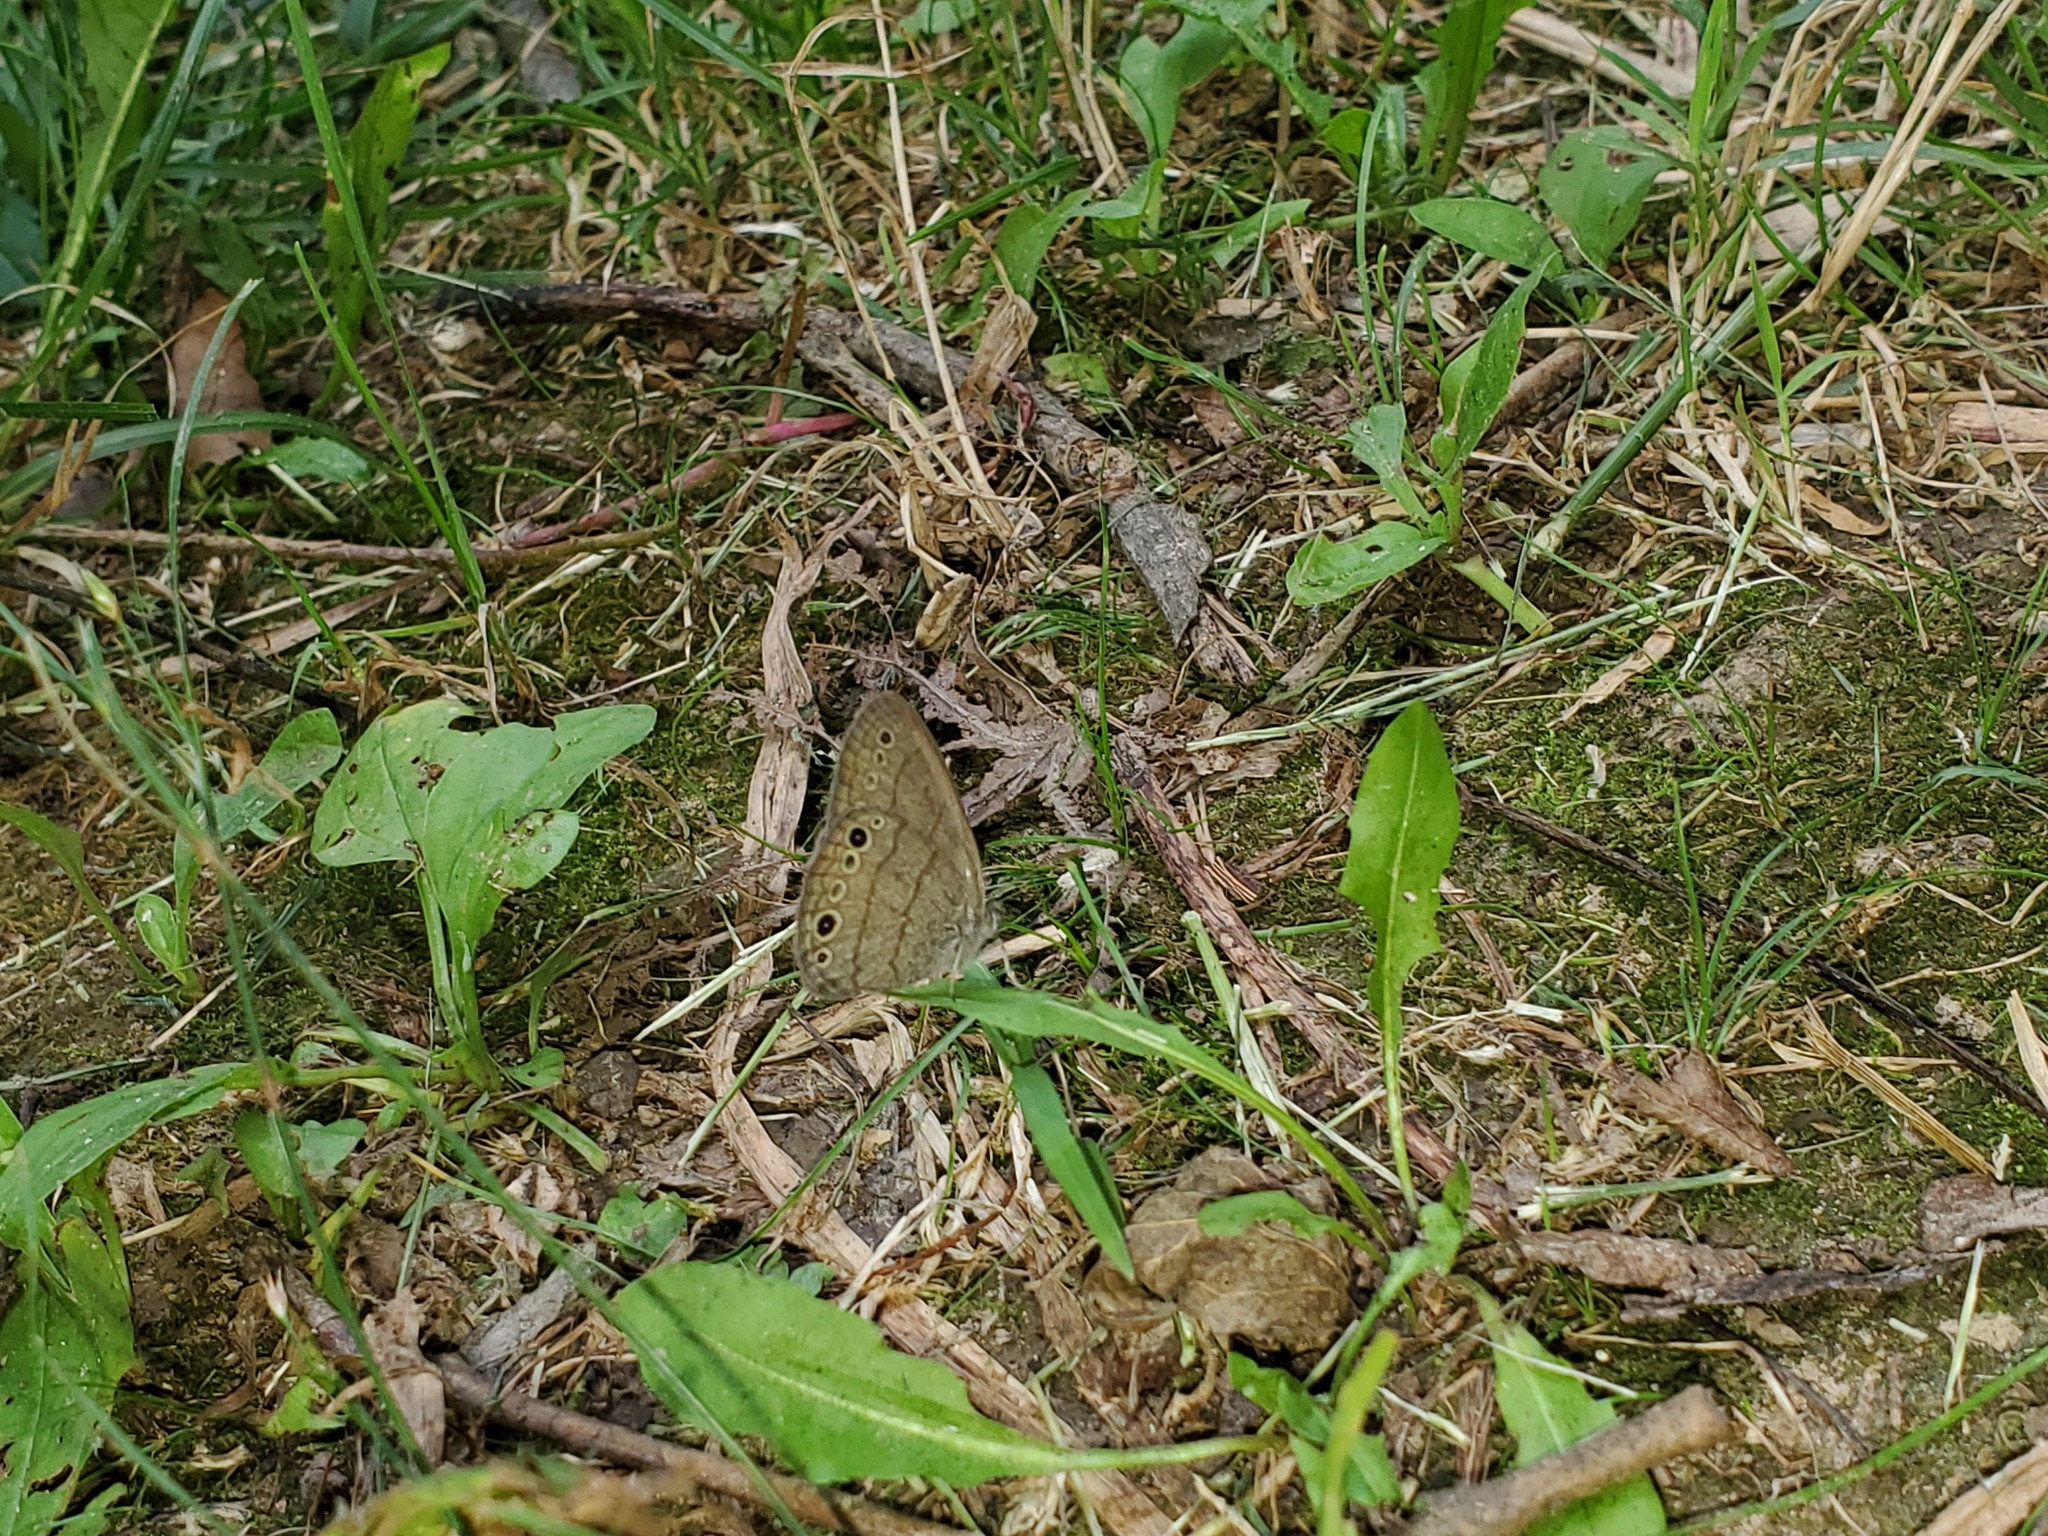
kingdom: Animalia
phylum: Arthropoda
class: Insecta
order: Lepidoptera
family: Nymphalidae
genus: Hermeuptychia
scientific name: Hermeuptychia hermes
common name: Hermes satyr
